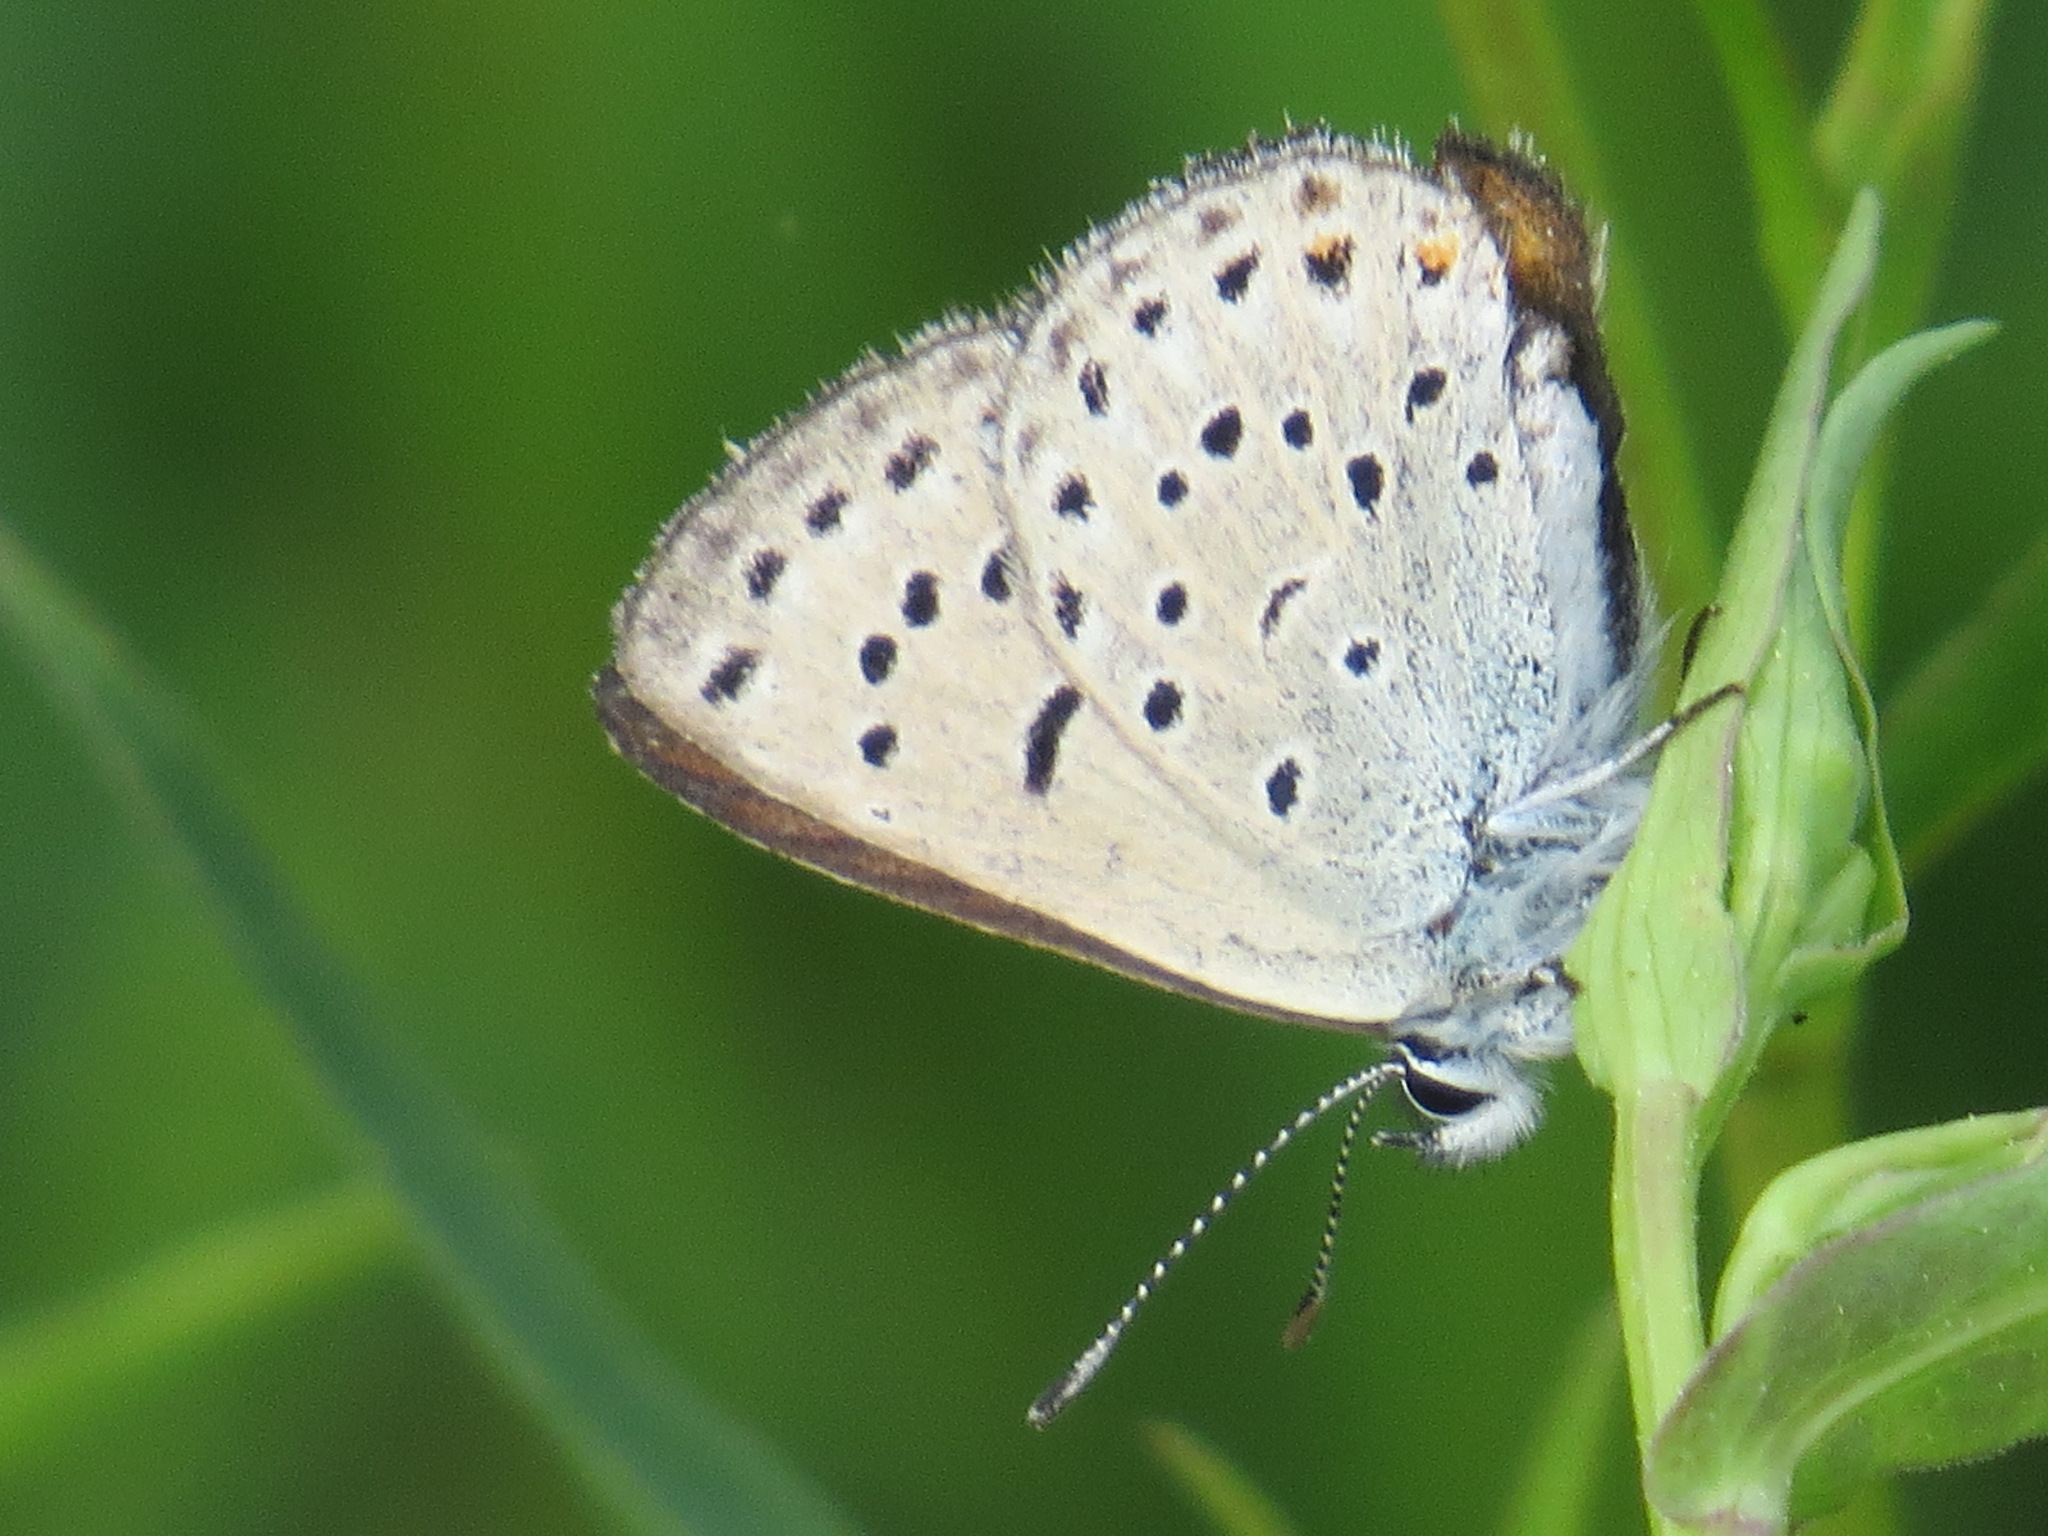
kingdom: Animalia
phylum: Arthropoda
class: Insecta
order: Lepidoptera
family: Lycaenidae
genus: Icaricia
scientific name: Icaricia saepiolus
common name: Greenish blue
